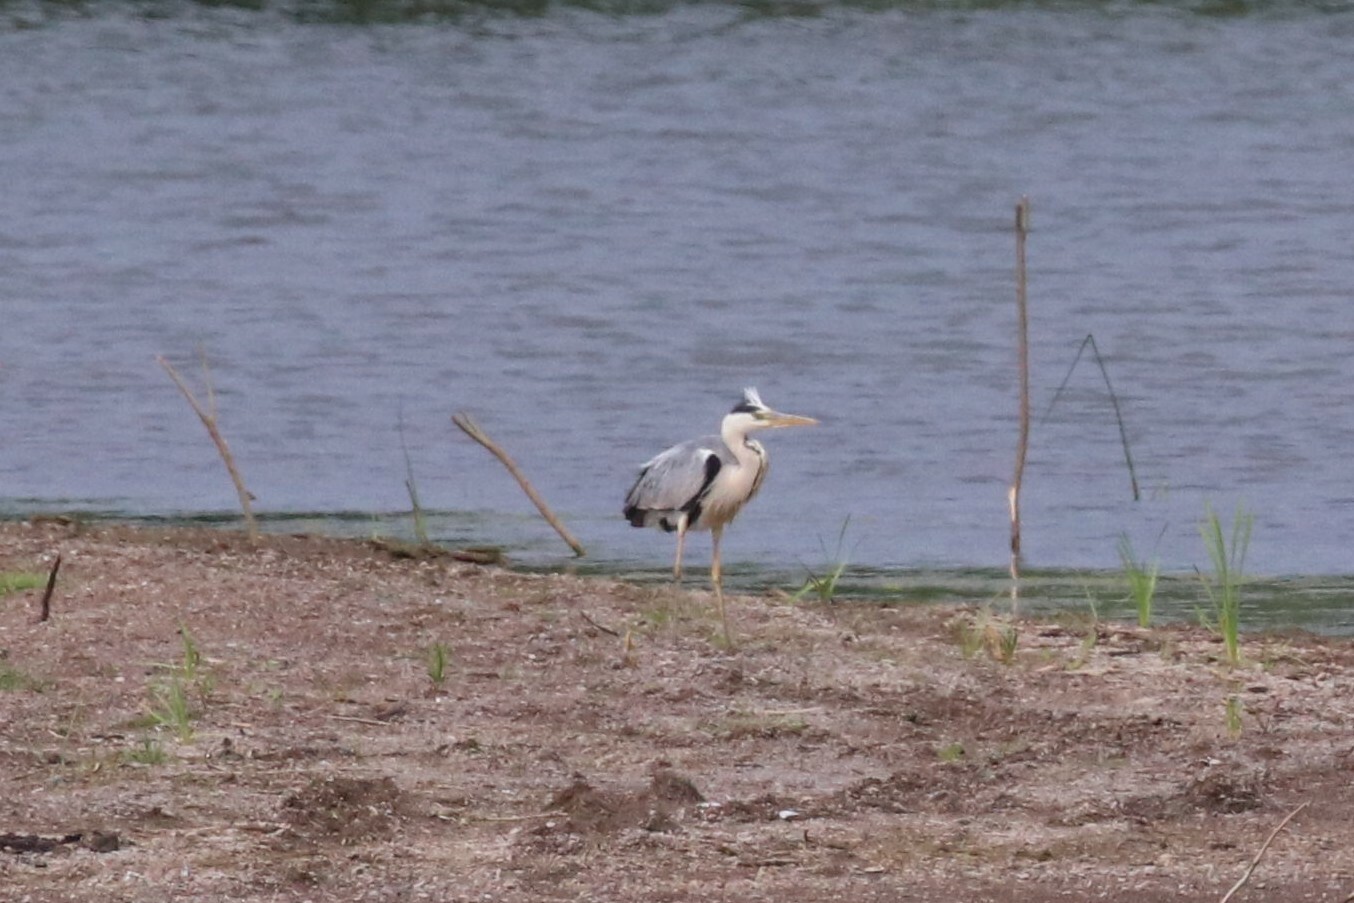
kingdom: Animalia
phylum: Chordata
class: Aves
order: Pelecaniformes
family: Ardeidae
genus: Ardea
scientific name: Ardea cinerea
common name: Grey heron
